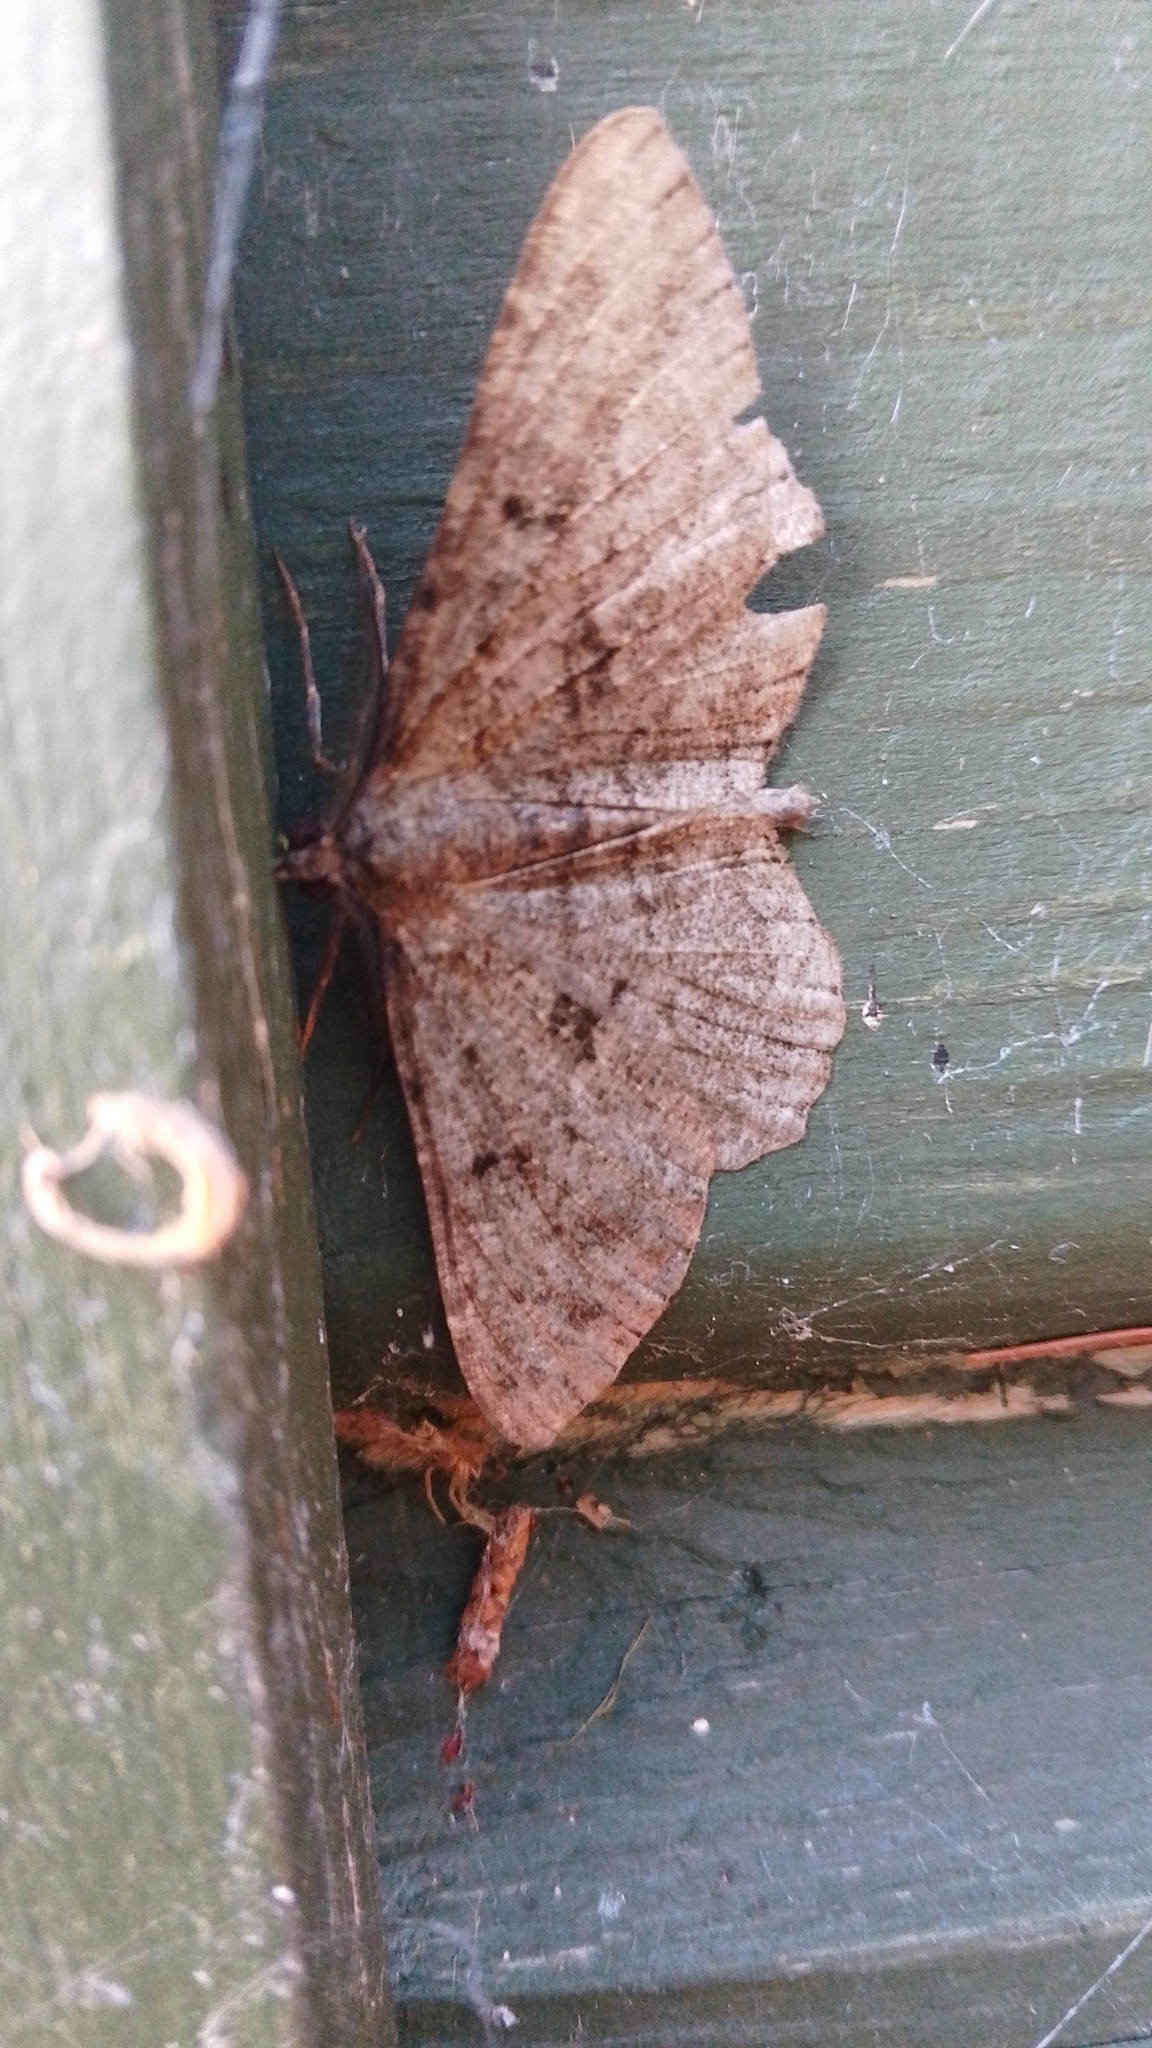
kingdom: Animalia
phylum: Arthropoda
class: Insecta
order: Lepidoptera
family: Geometridae
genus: Peribatodes
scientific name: Peribatodes rhomboidaria
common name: Willow beauty
